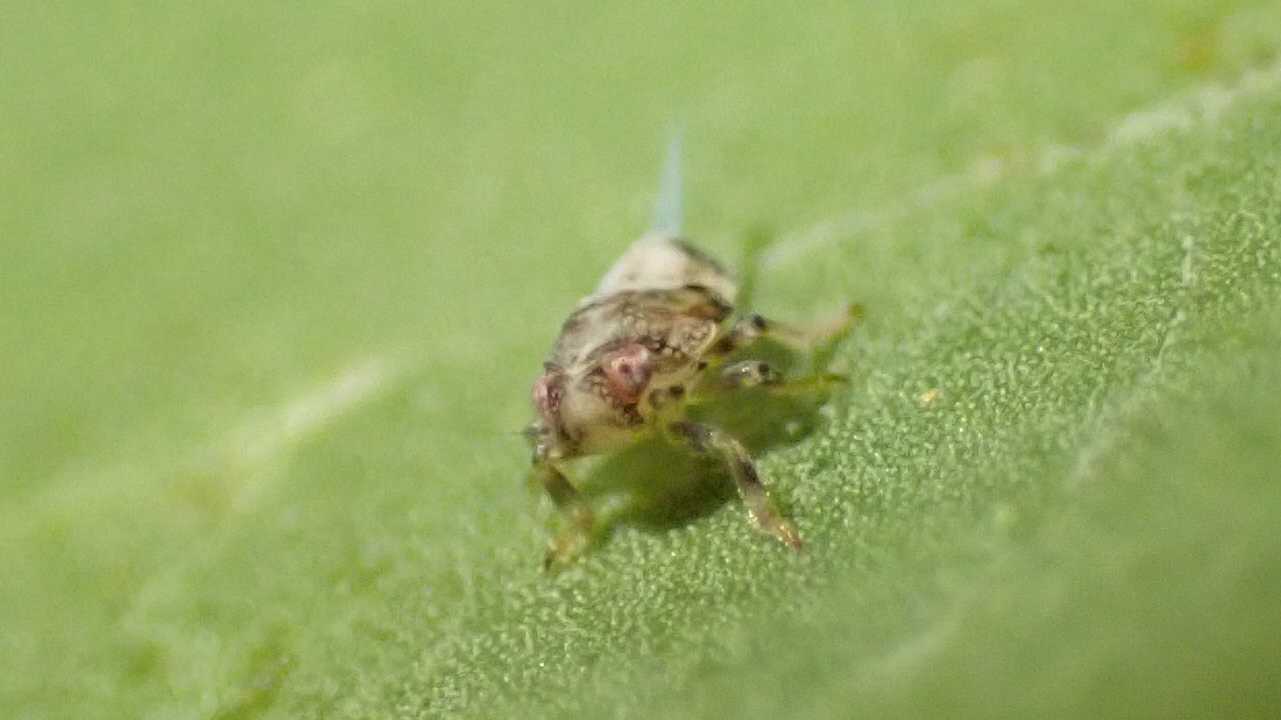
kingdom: Animalia
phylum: Arthropoda
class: Insecta
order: Hemiptera
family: Issidae
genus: Issus
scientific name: Issus coleoptratus
